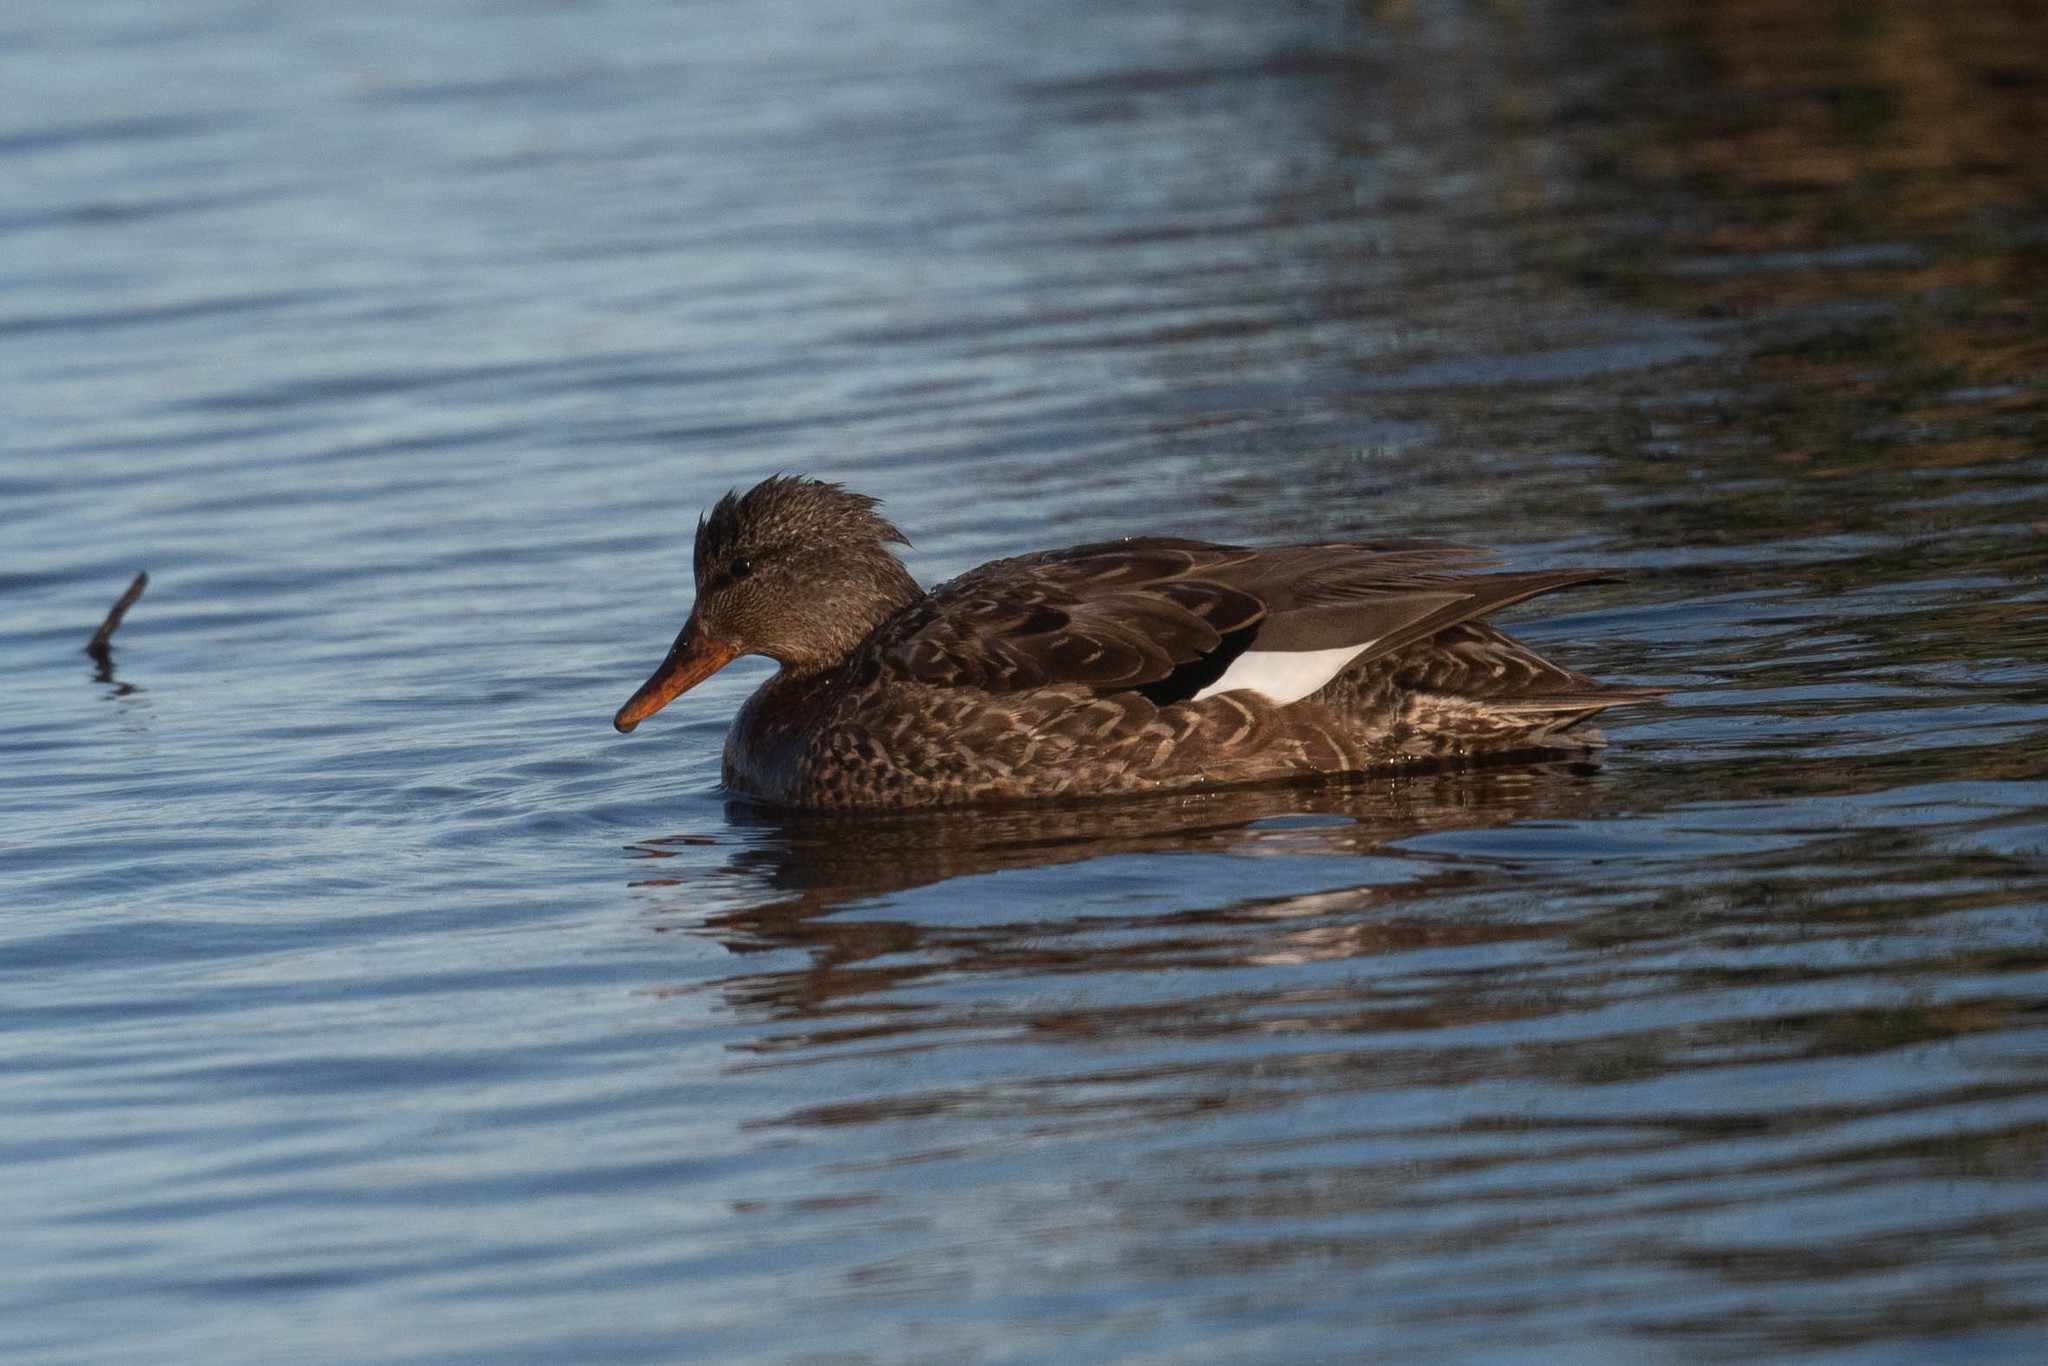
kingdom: Animalia
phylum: Chordata
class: Aves
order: Anseriformes
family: Anatidae
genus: Mareca
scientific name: Mareca strepera
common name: Gadwall
